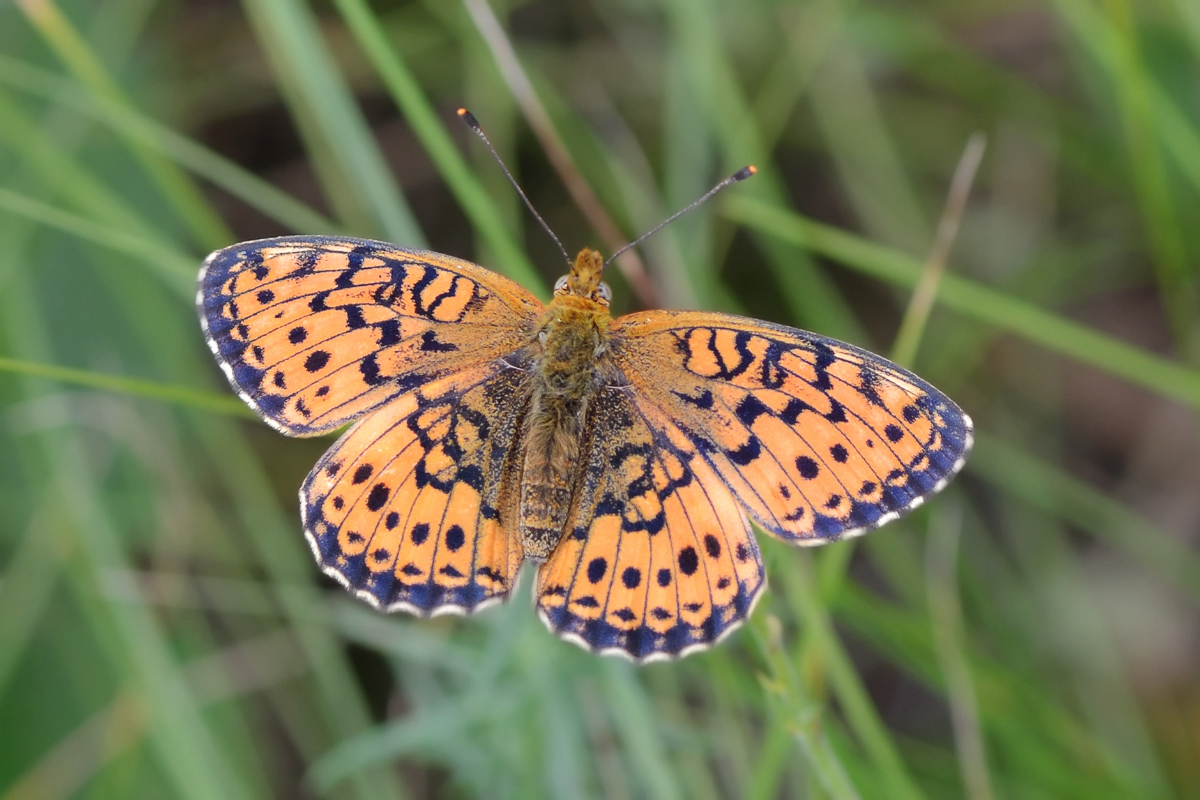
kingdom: Animalia
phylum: Arthropoda
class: Insecta
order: Lepidoptera
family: Nymphalidae
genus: Brenthis
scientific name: Brenthis ino
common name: Lesser marbled fritillary
